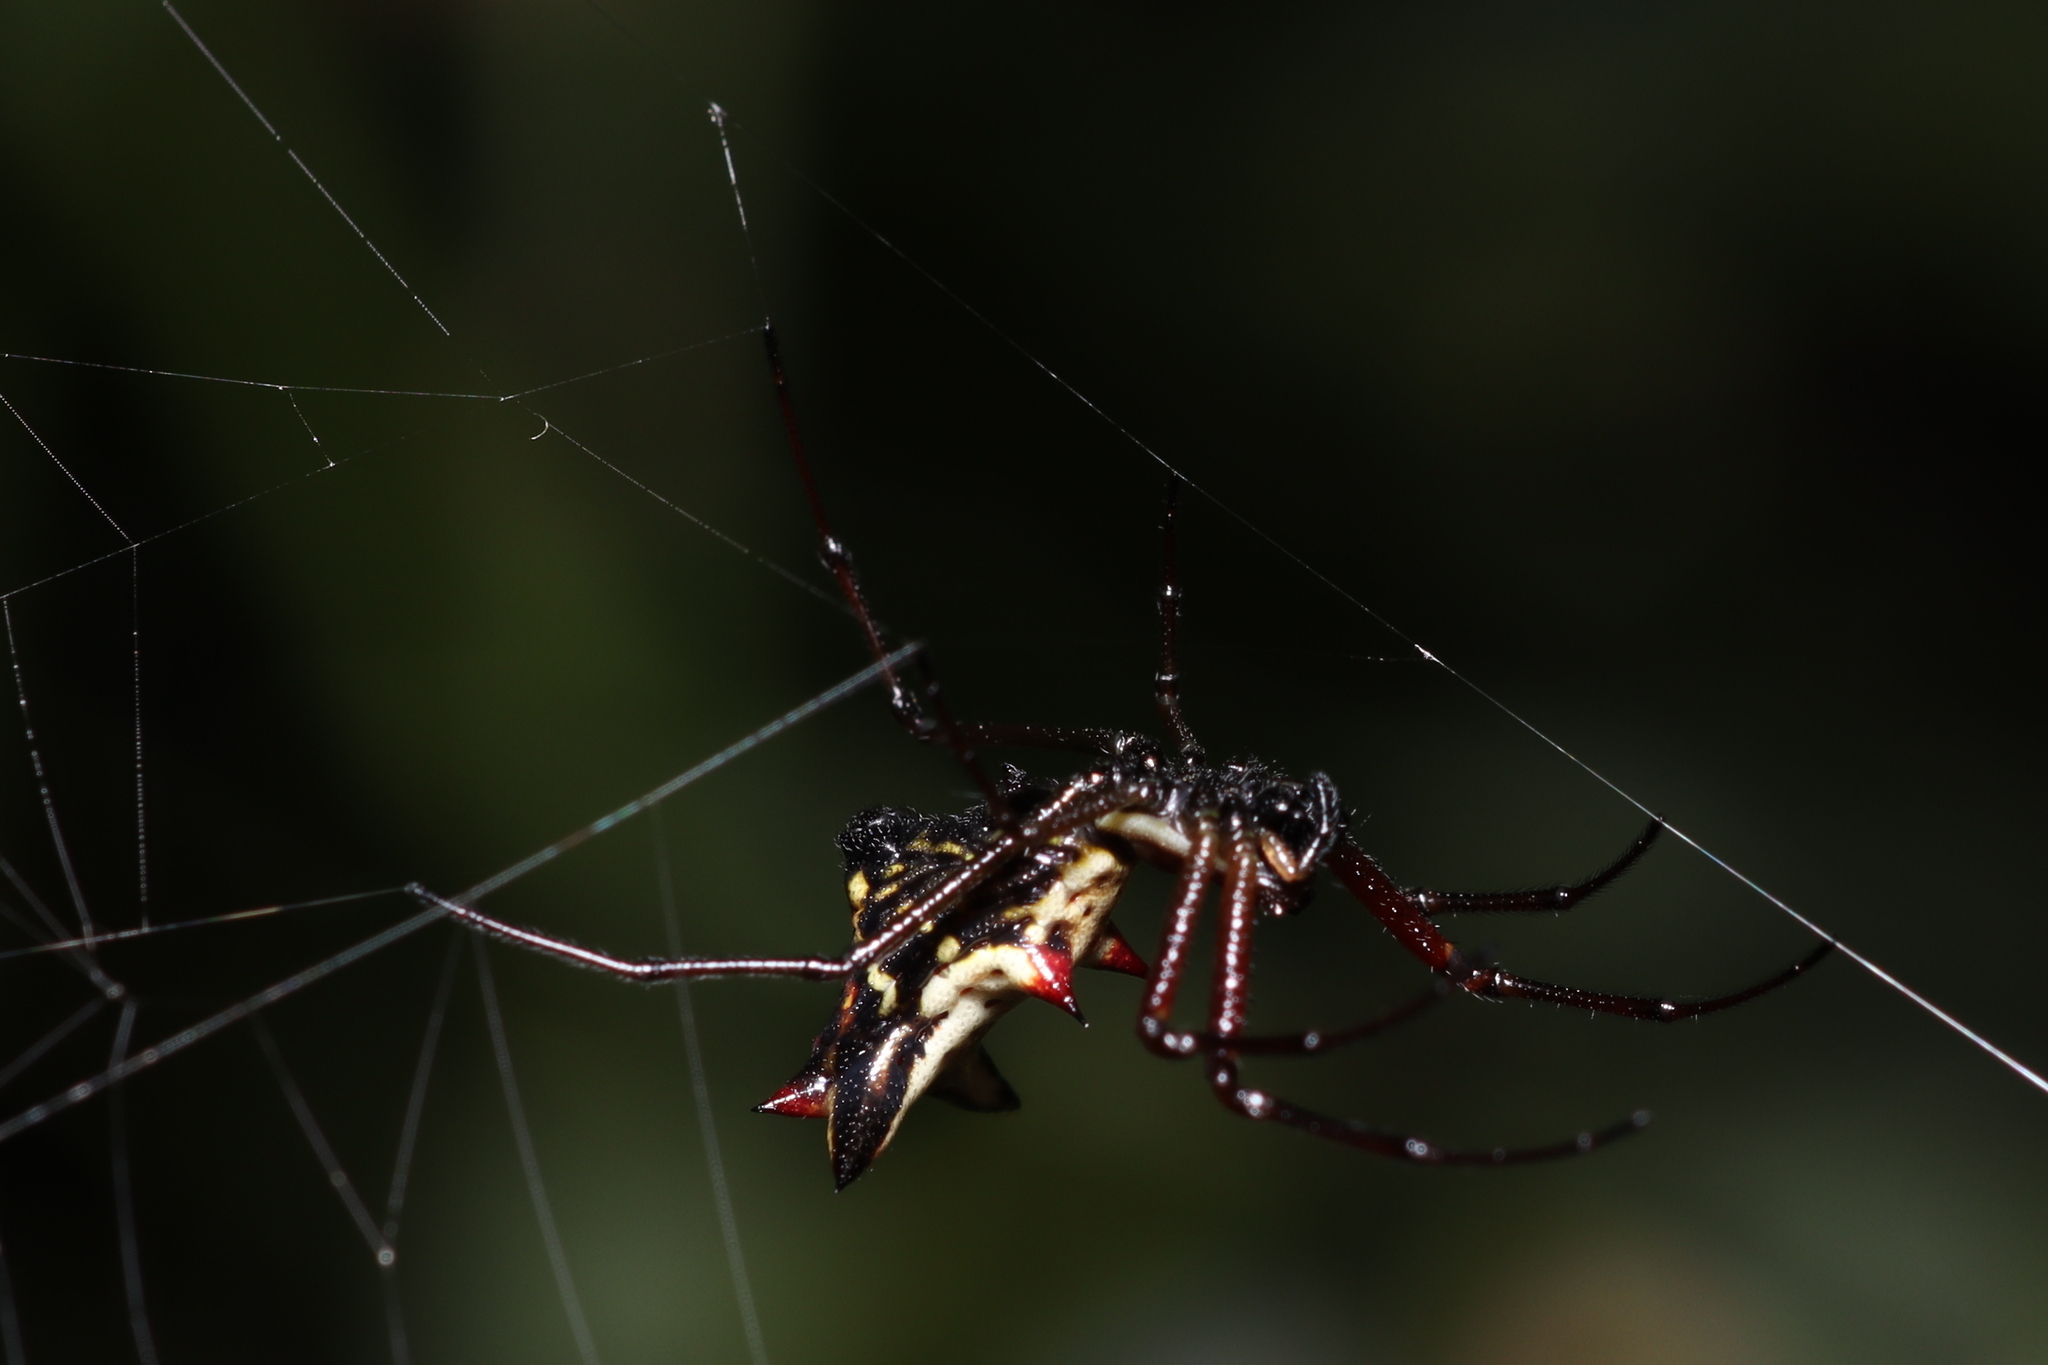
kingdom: Animalia
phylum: Arthropoda
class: Arachnida
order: Araneae
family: Araneidae
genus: Micrathena
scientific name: Micrathena nigrichelis
